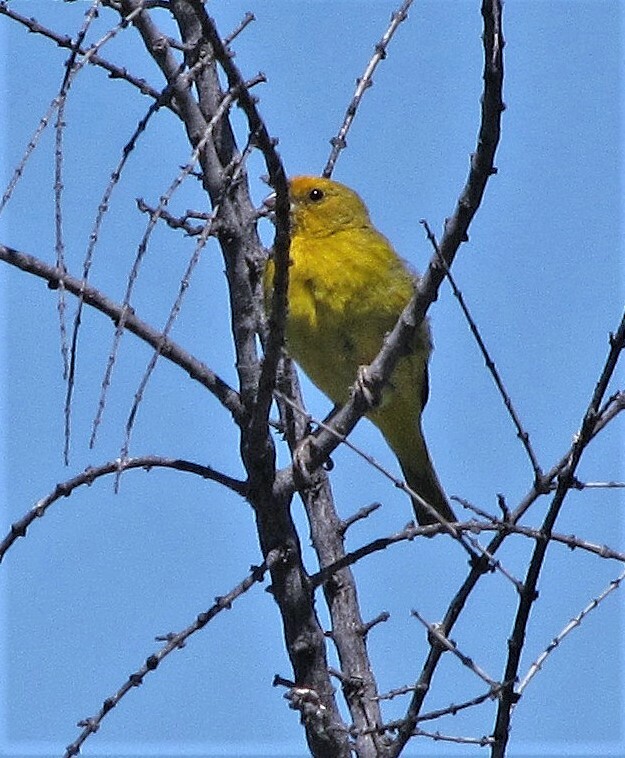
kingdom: Animalia
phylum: Chordata
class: Aves
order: Passeriformes
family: Thraupidae
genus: Sicalis
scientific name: Sicalis flaveola
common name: Saffron finch
